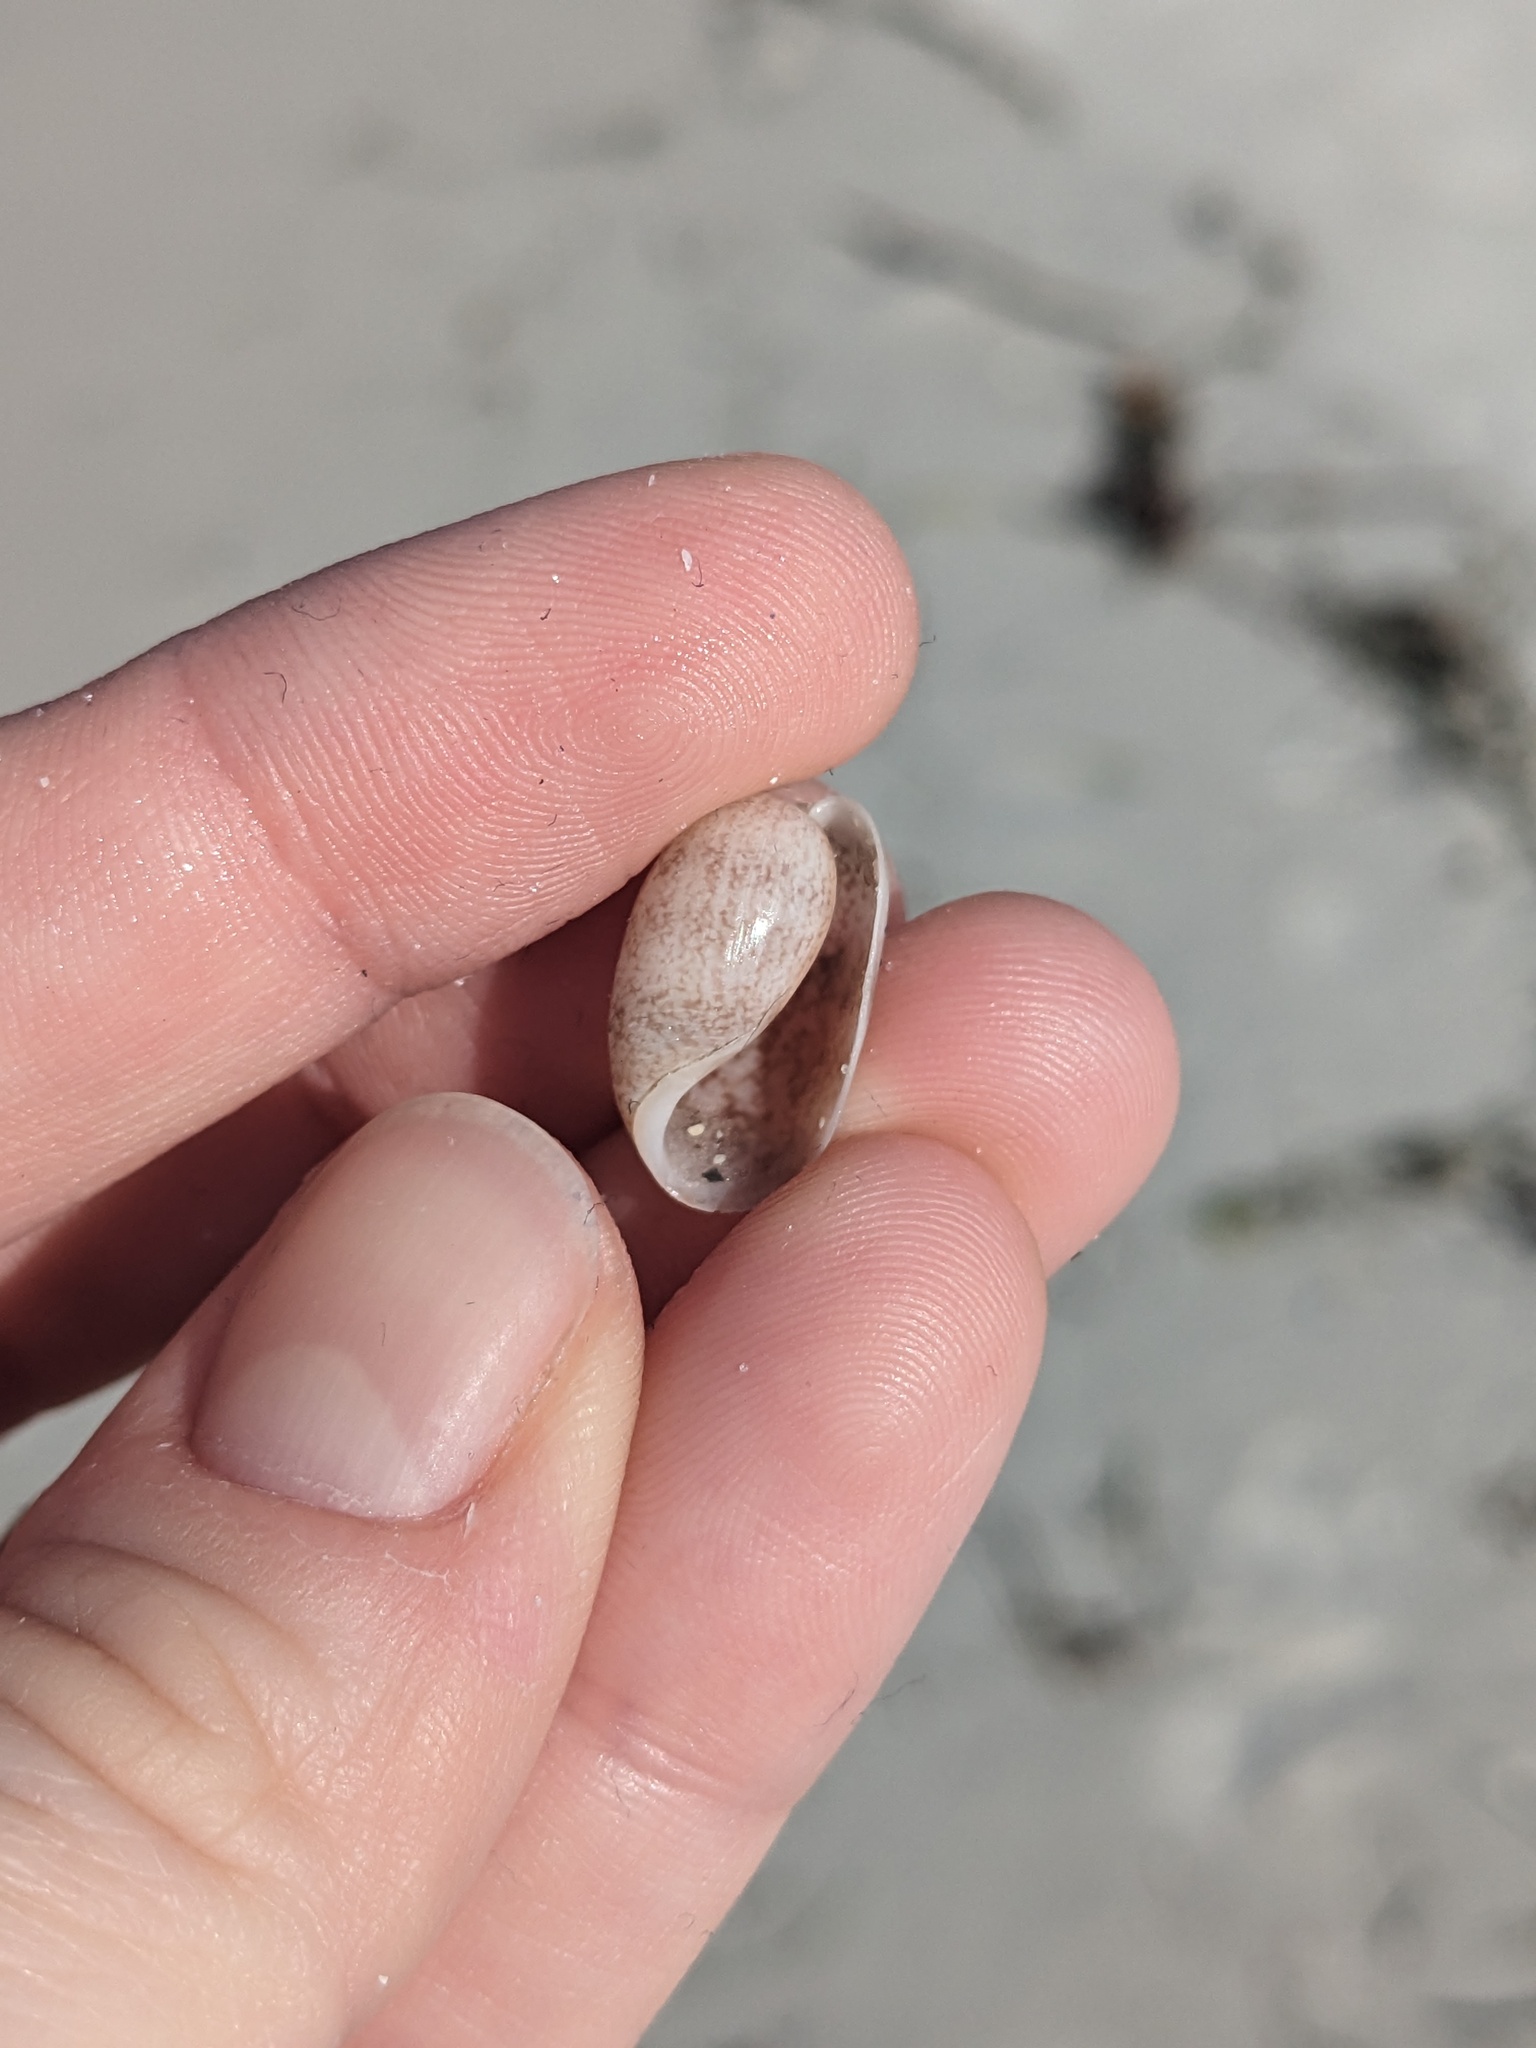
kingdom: Animalia
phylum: Mollusca
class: Gastropoda
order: Cephalaspidea
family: Bullidae
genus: Bulla
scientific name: Bulla occidentalis
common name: Common west-indian bubble
